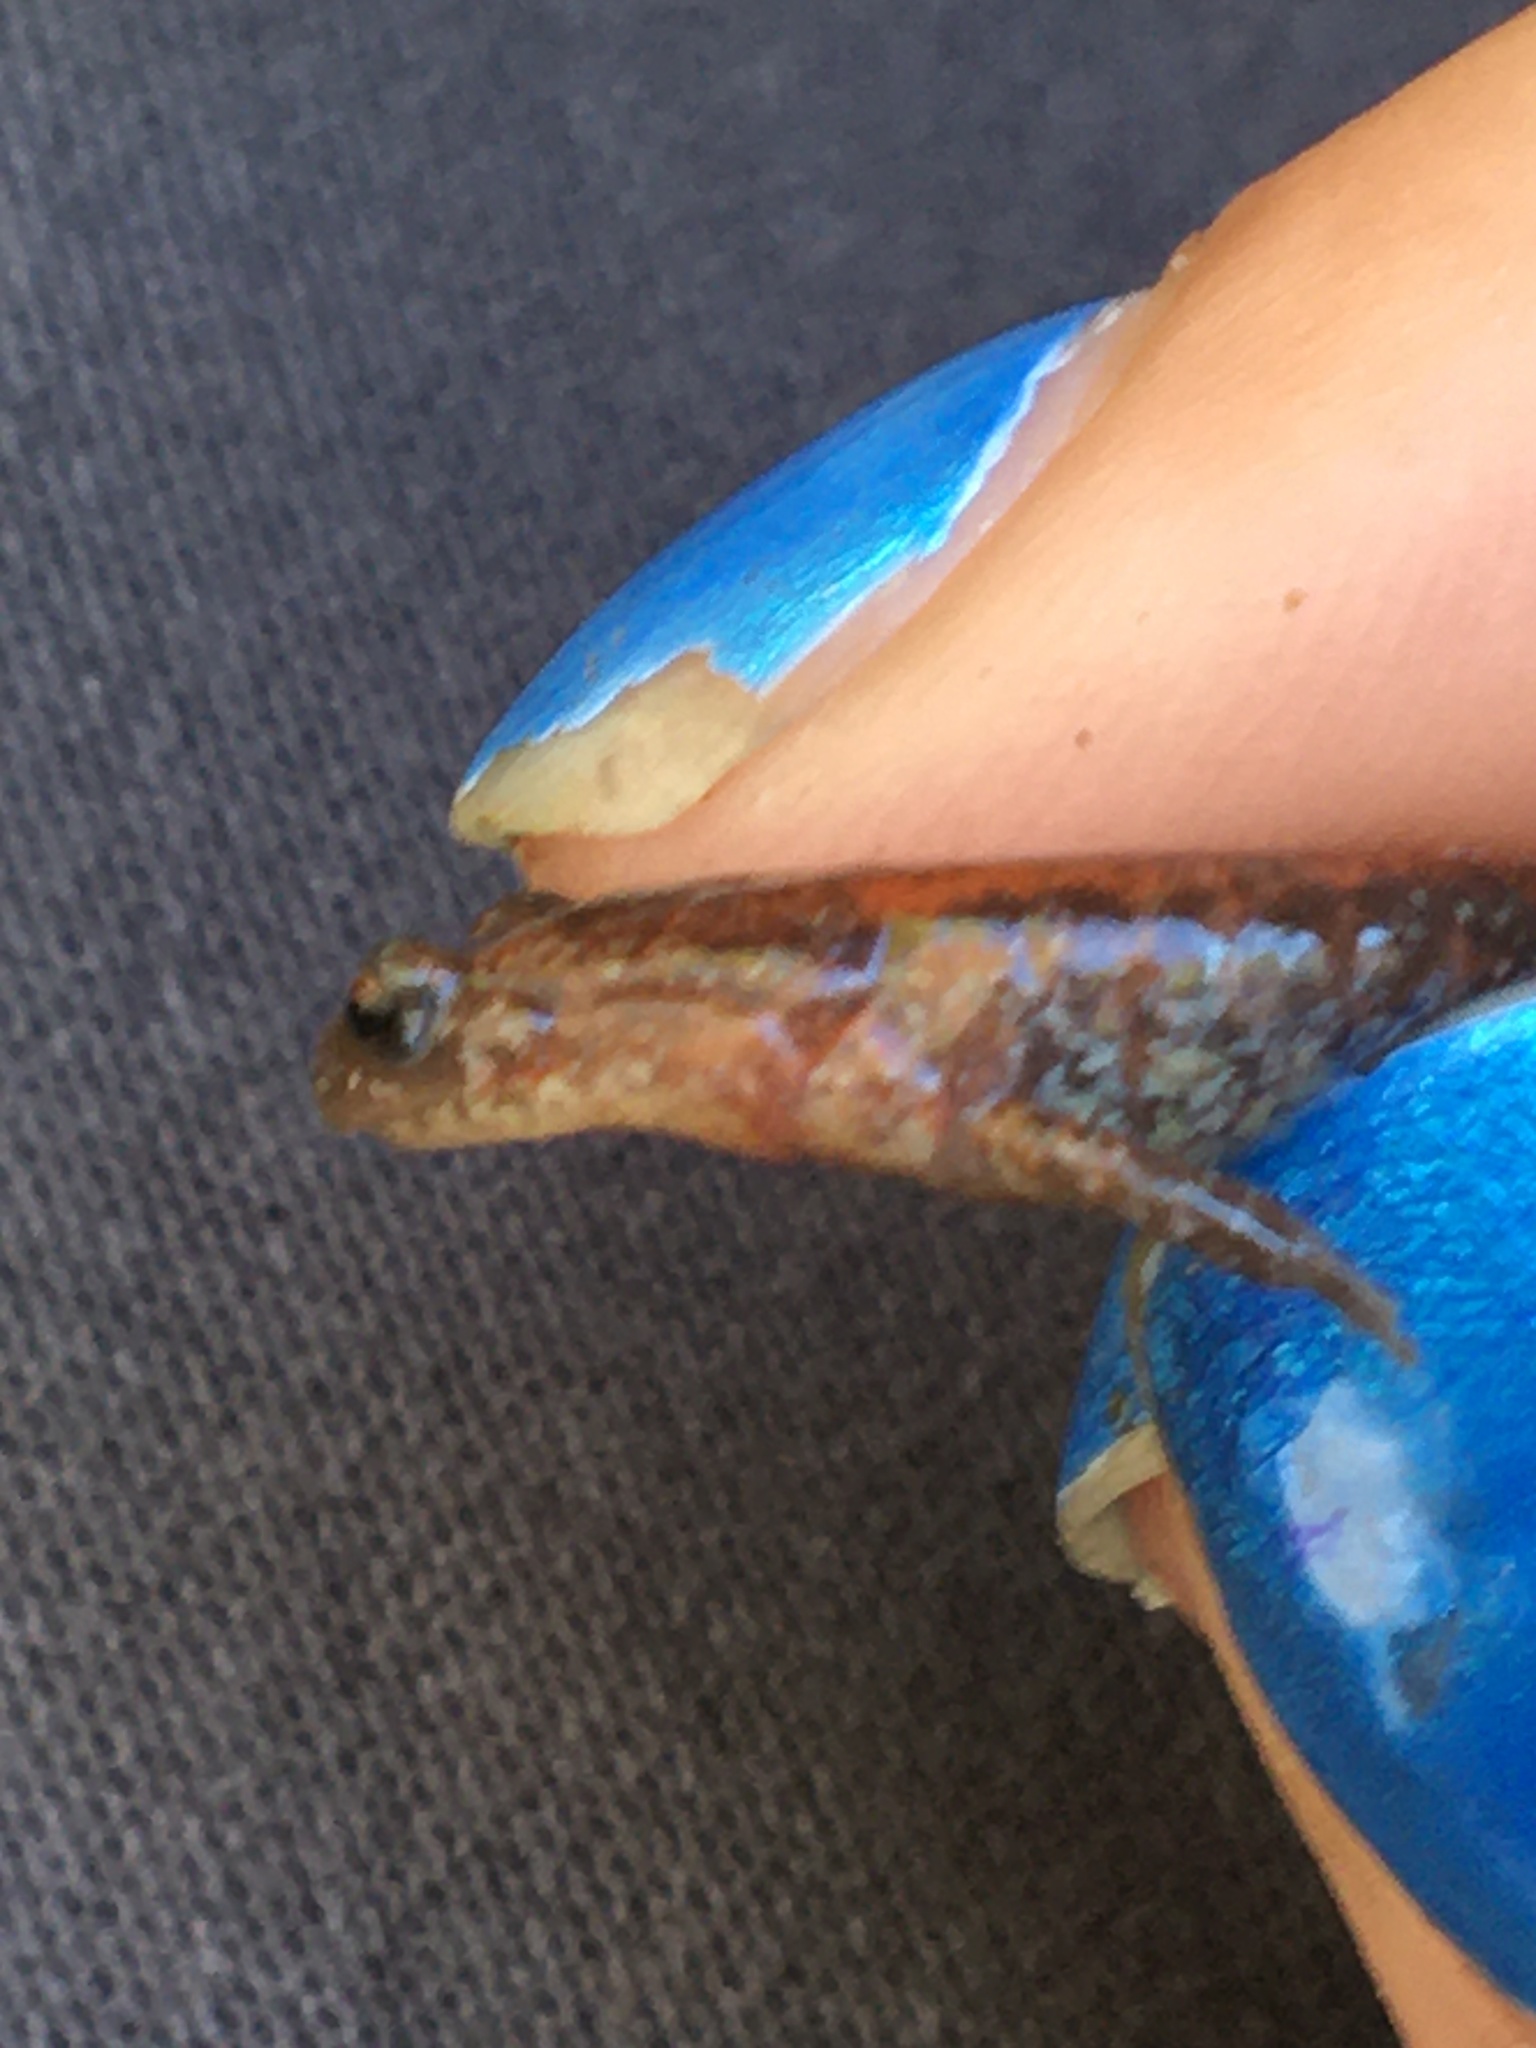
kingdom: Animalia
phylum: Chordata
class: Amphibia
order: Caudata
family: Plethodontidae
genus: Plethodon
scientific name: Plethodon cinereus
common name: Redback salamander
